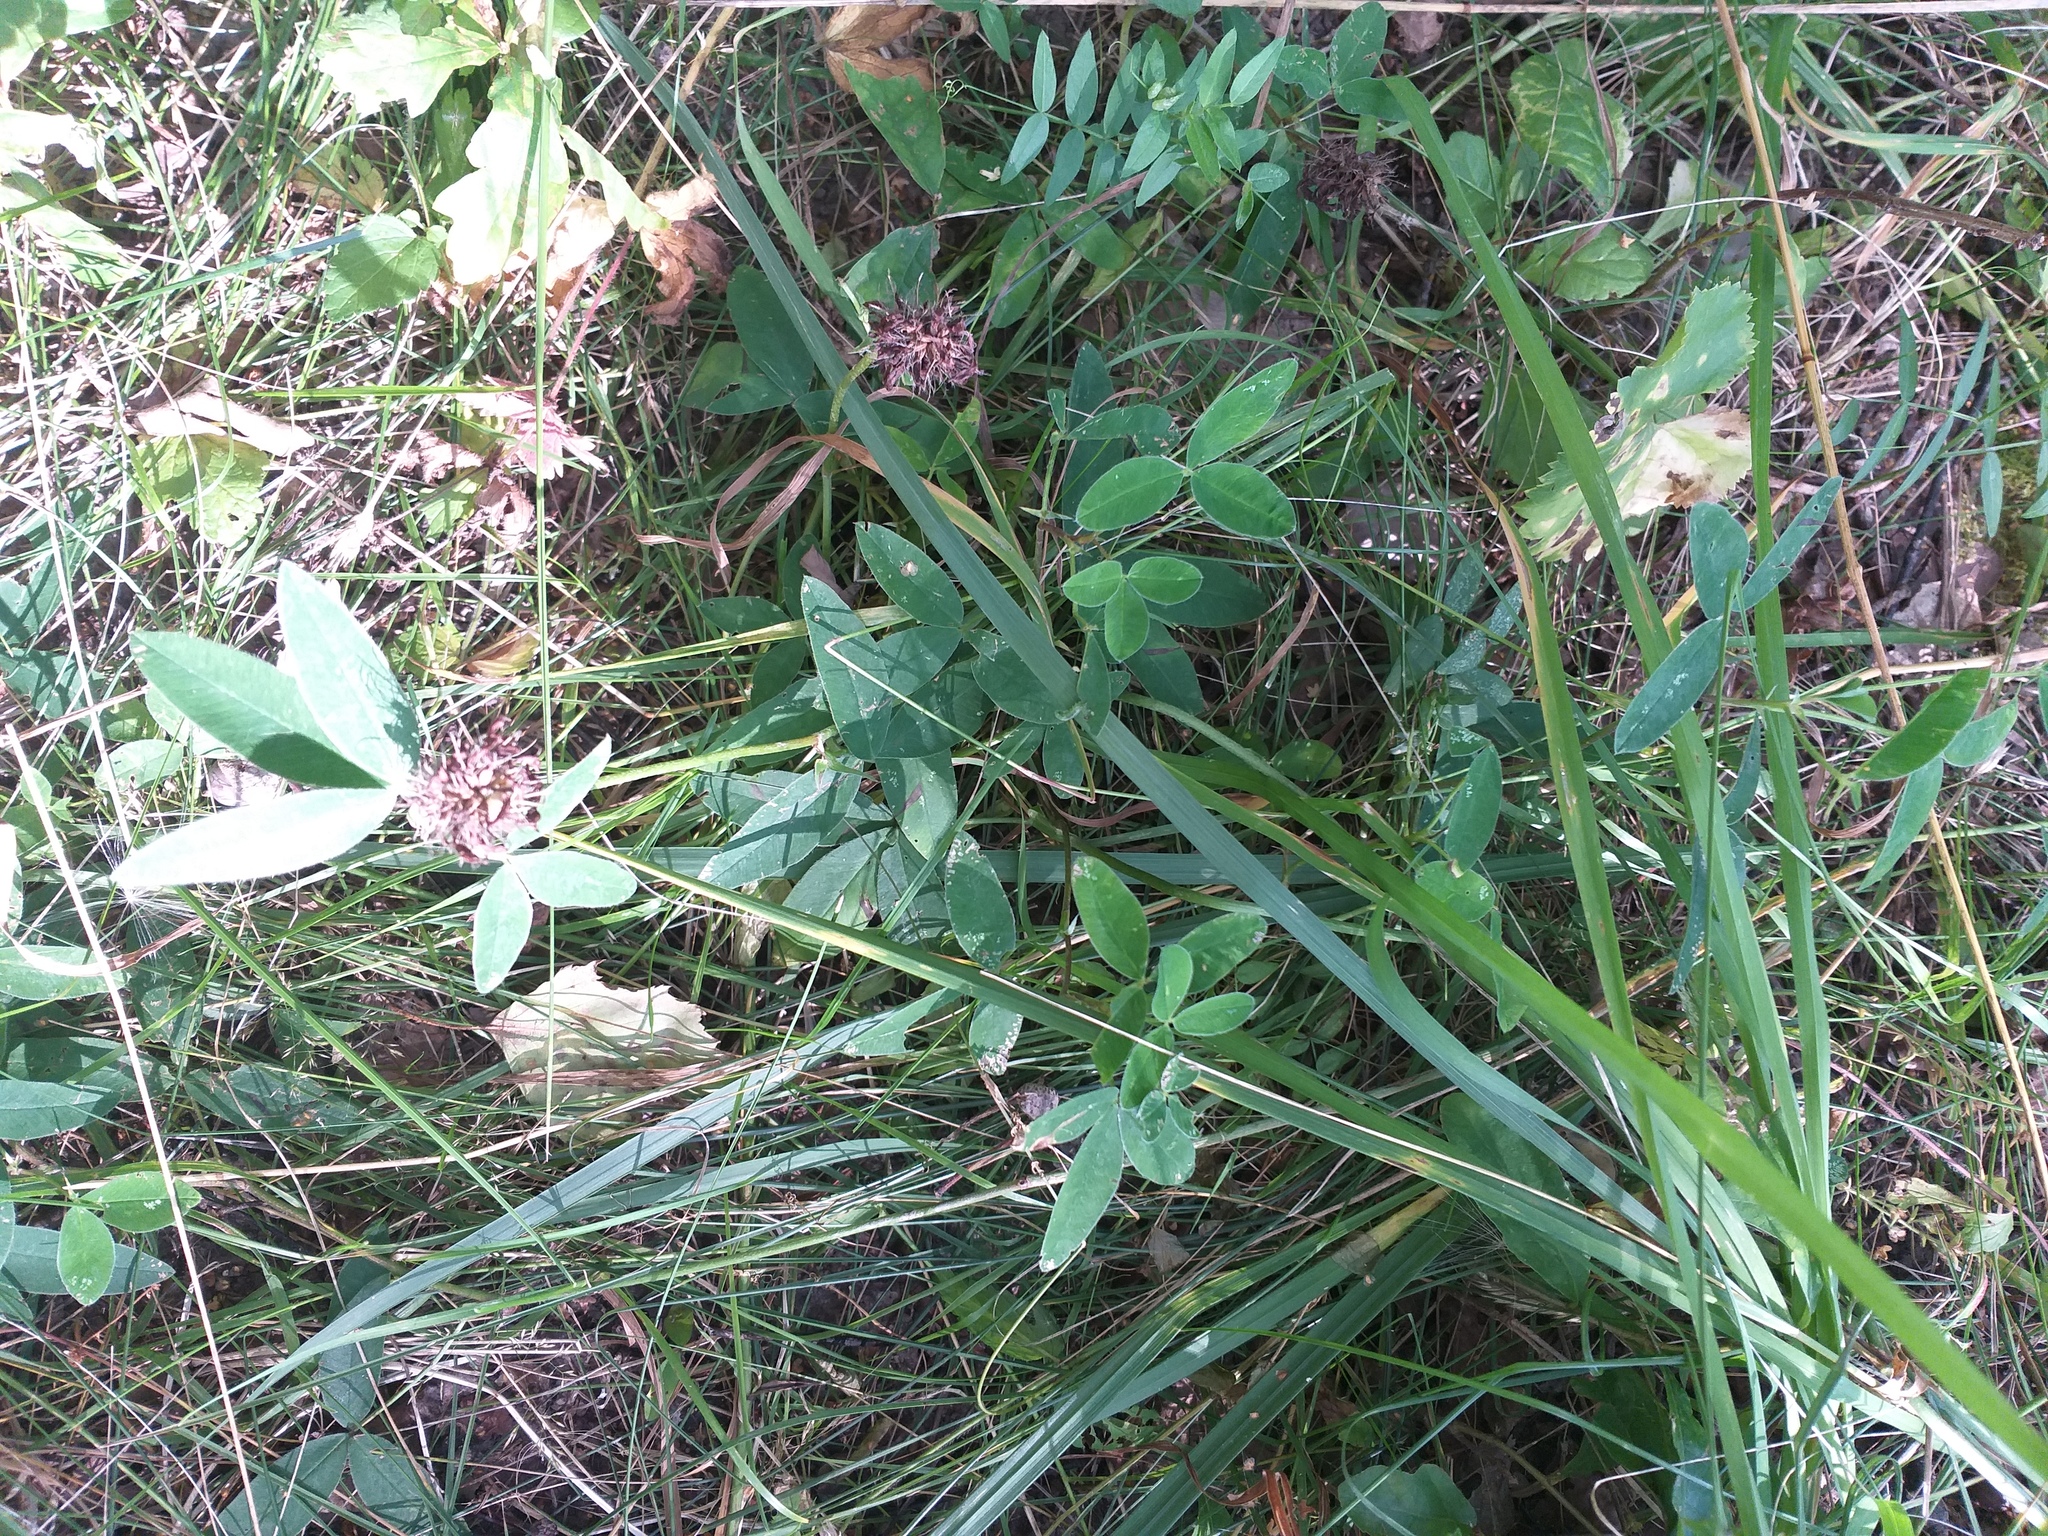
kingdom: Plantae
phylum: Tracheophyta
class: Magnoliopsida
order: Fabales
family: Fabaceae
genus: Trifolium
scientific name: Trifolium medium
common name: Zigzag clover
